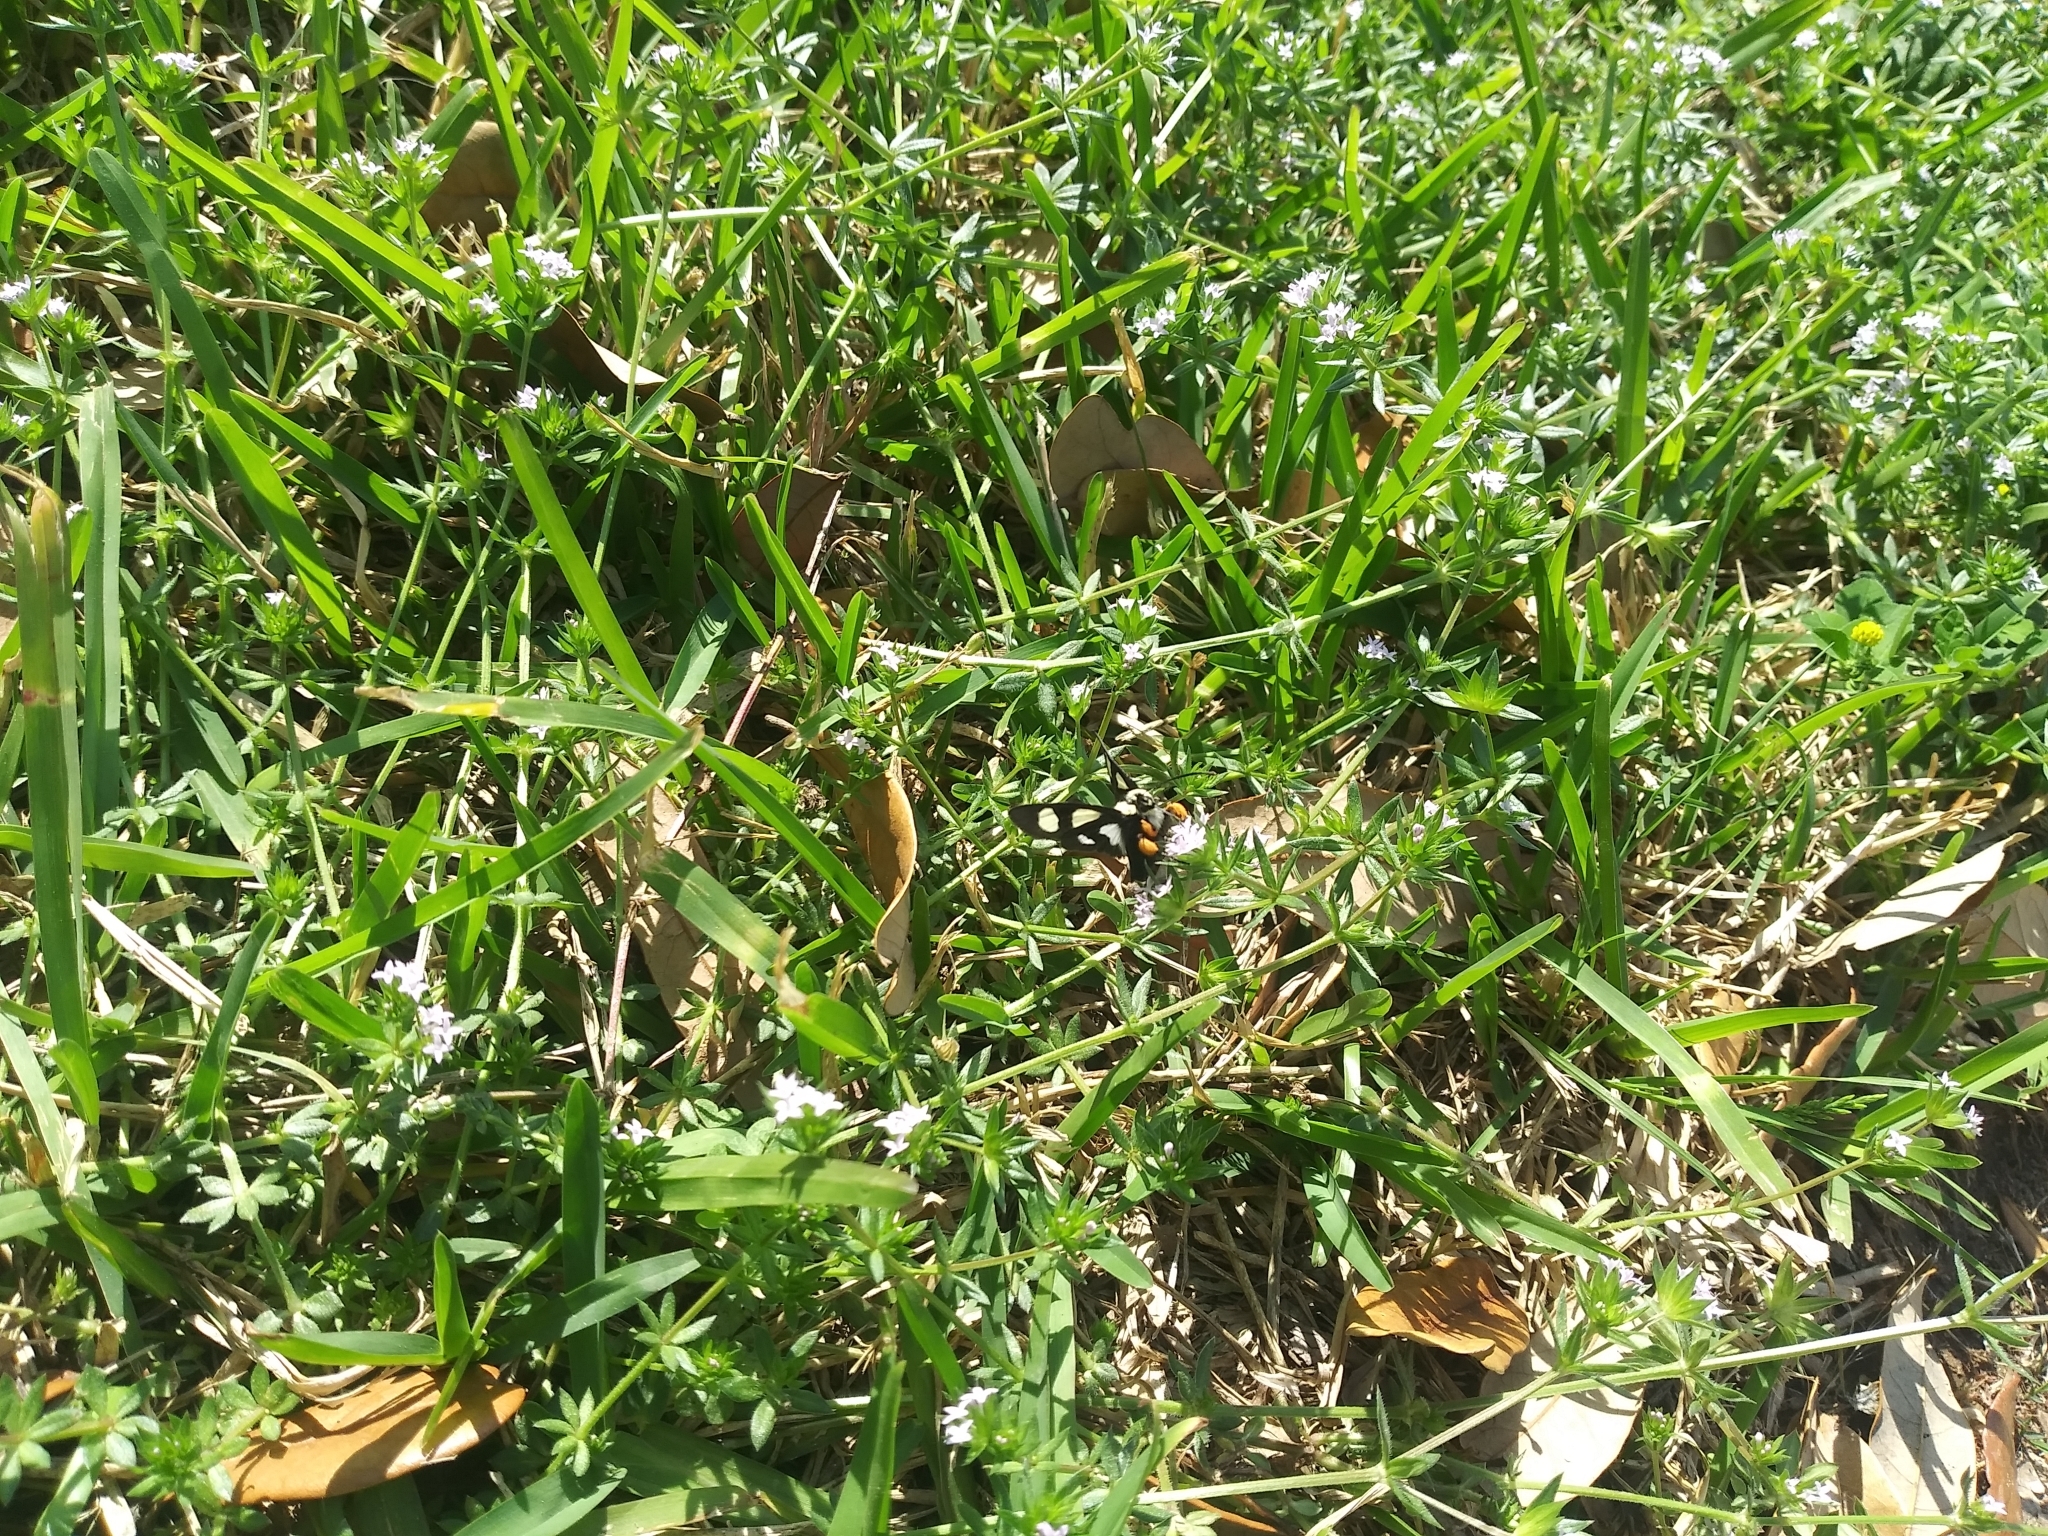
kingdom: Animalia
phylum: Arthropoda
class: Insecta
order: Lepidoptera
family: Noctuidae
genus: Alypia
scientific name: Alypia octomaculata
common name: Eight-spotted forester
